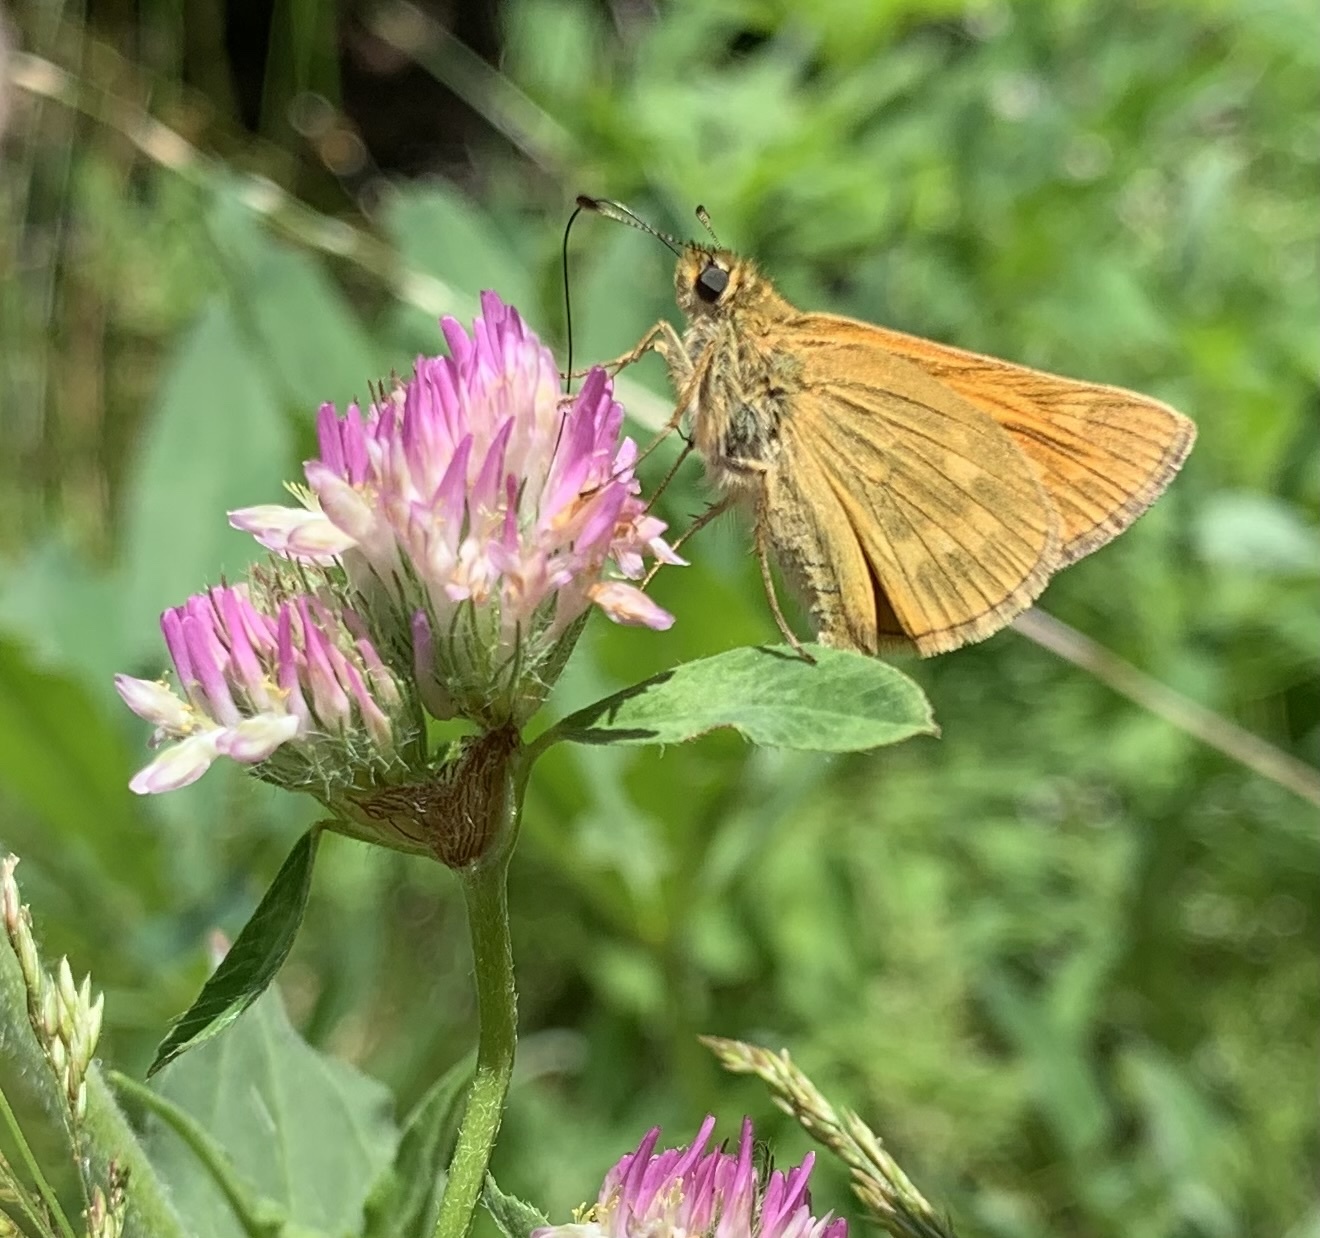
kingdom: Animalia
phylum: Arthropoda
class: Insecta
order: Lepidoptera
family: Hesperiidae
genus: Ochlodes
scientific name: Ochlodes venata
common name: Large skipper
